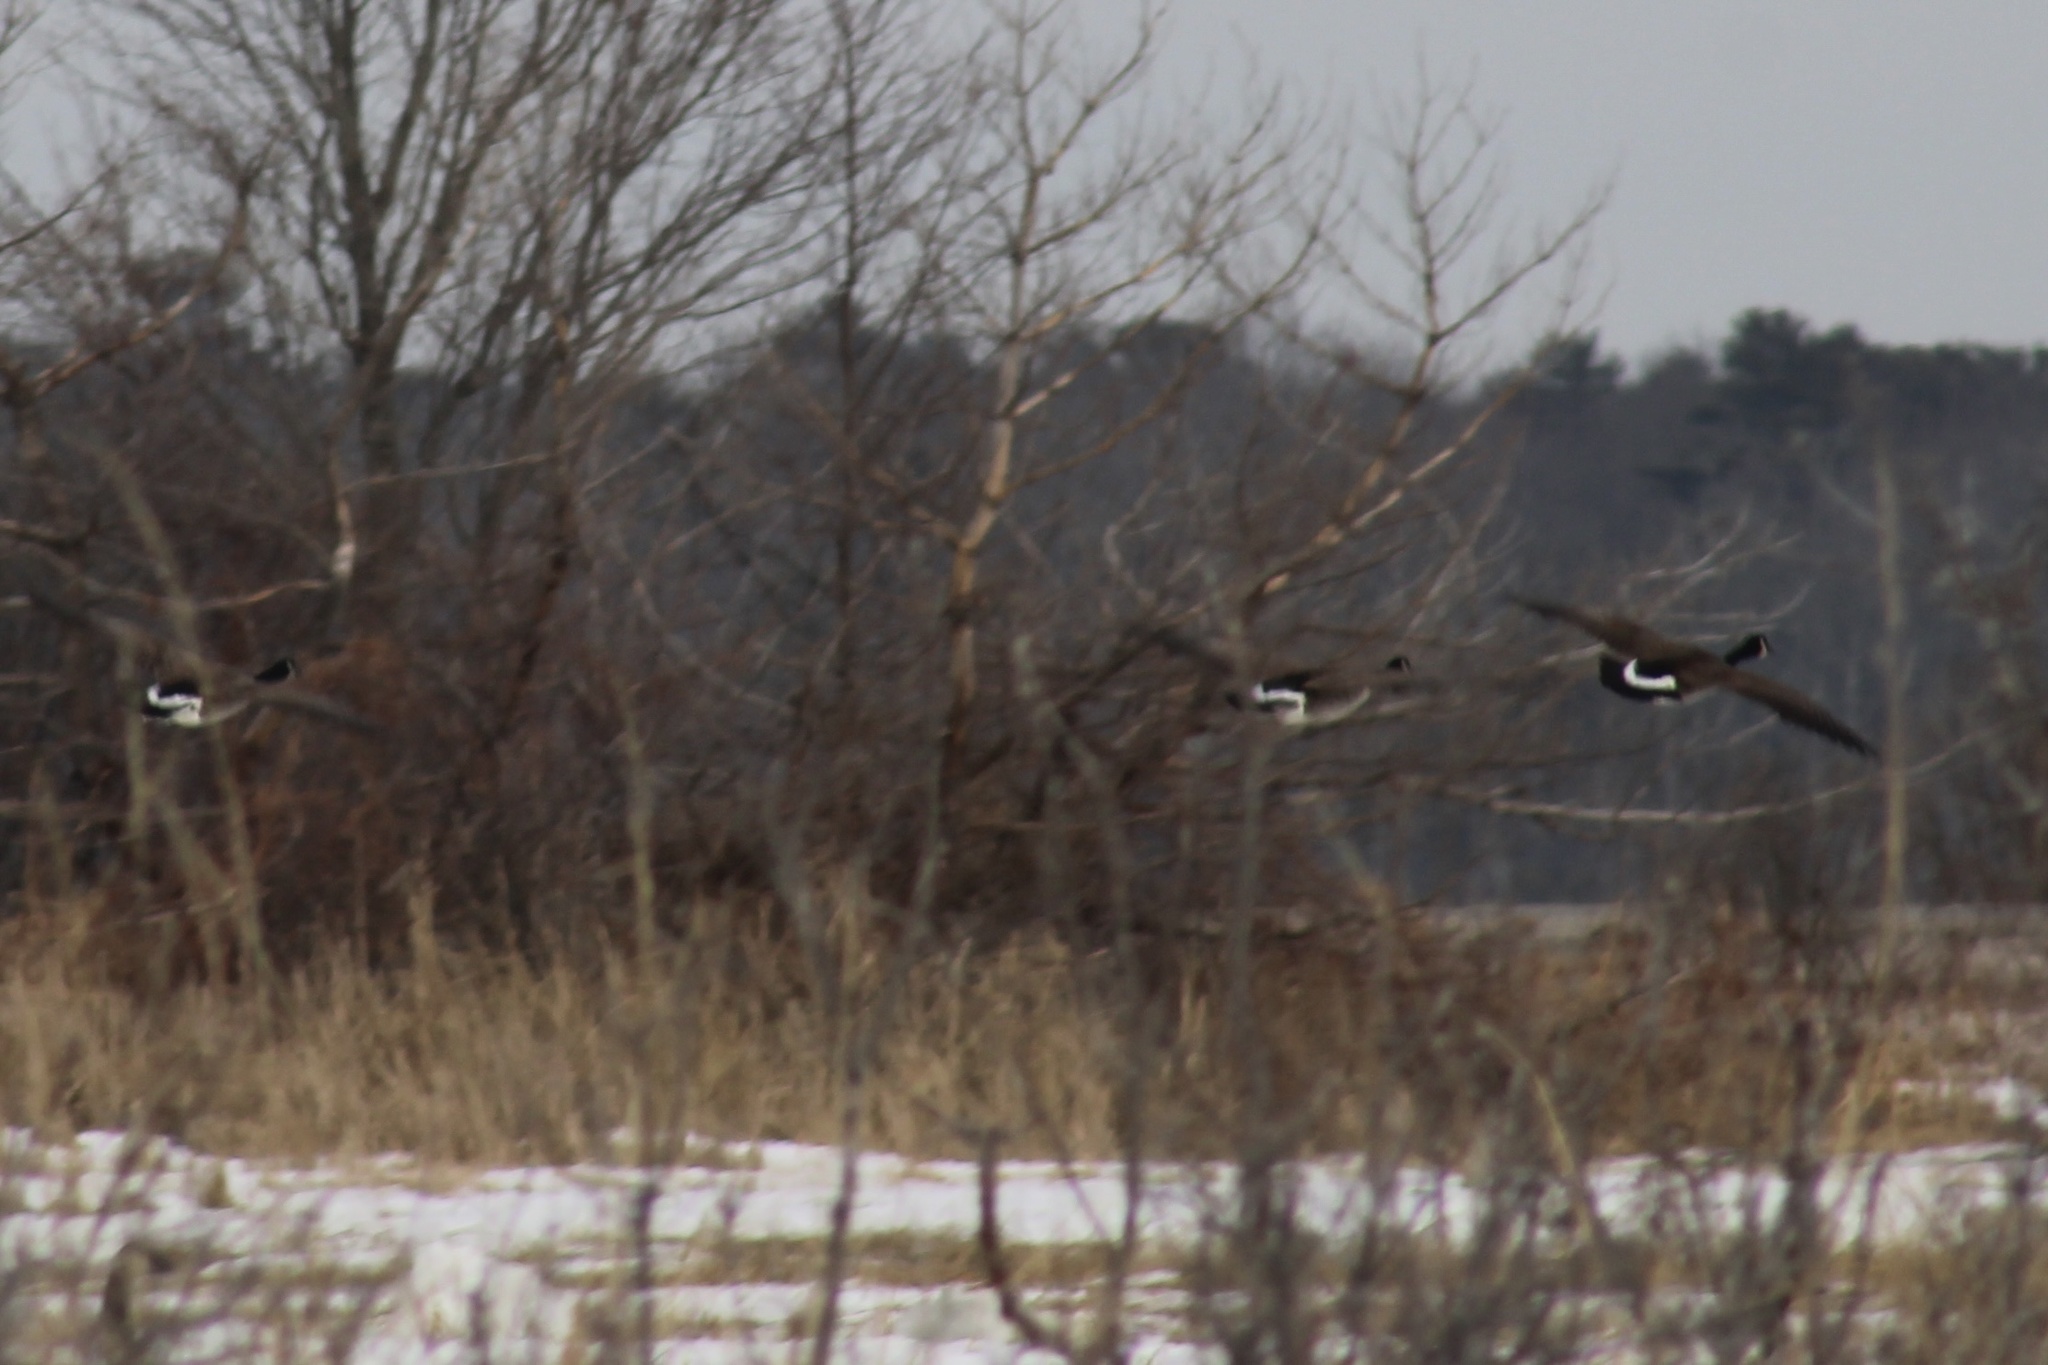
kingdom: Animalia
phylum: Chordata
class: Aves
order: Anseriformes
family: Anatidae
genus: Branta
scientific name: Branta canadensis
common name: Canada goose
